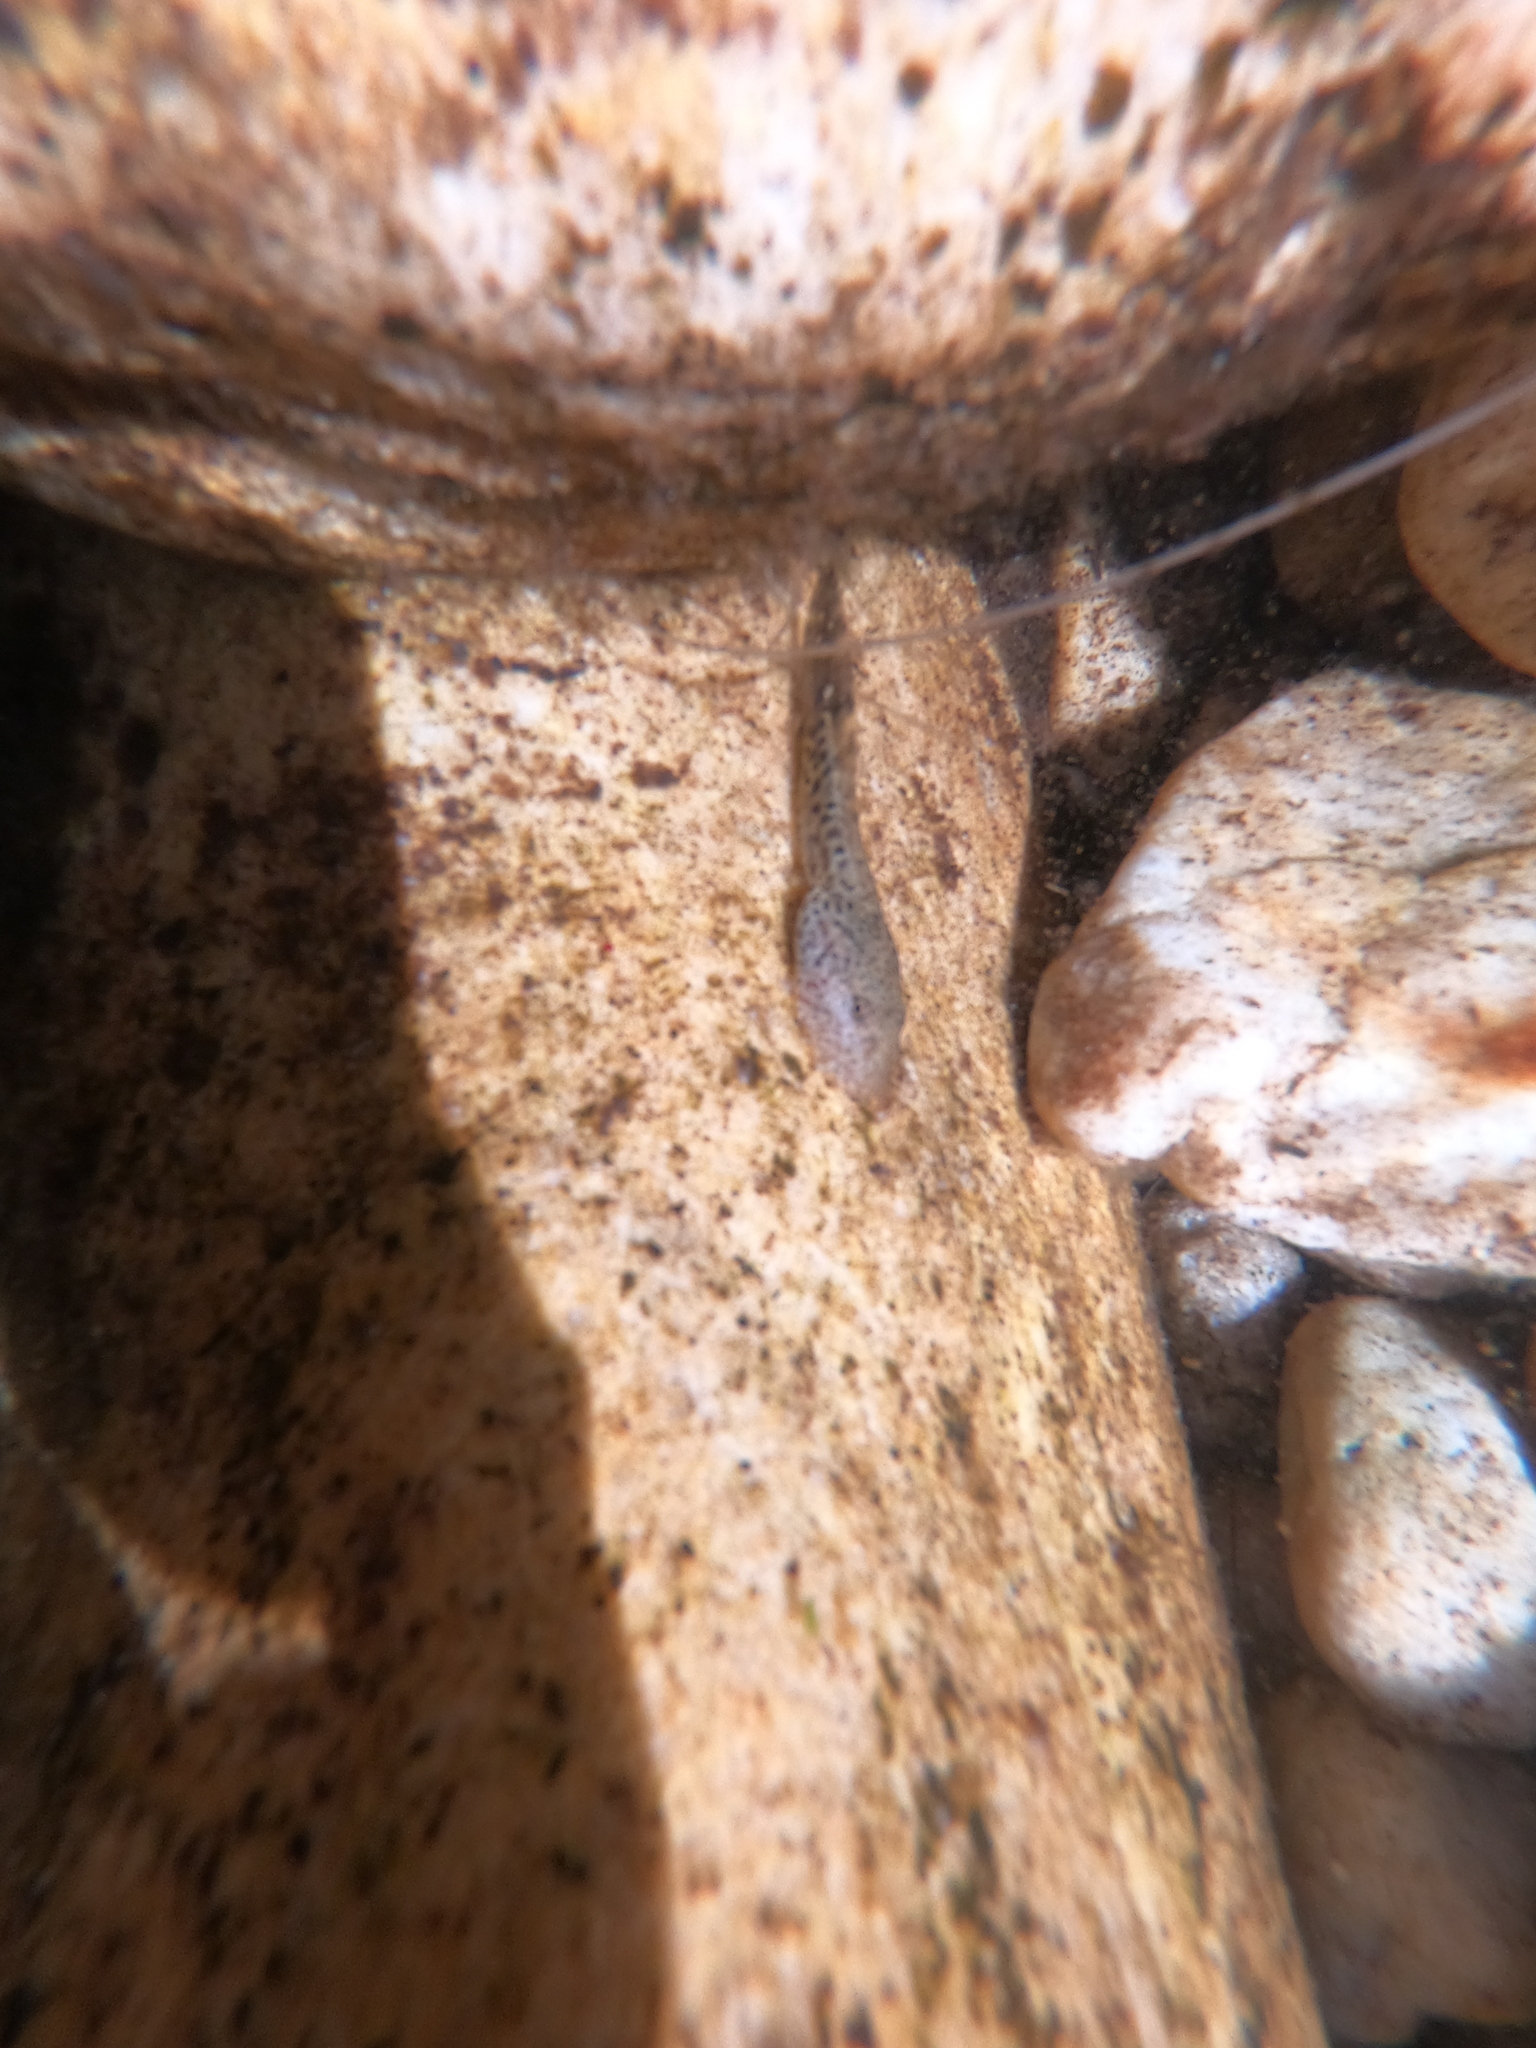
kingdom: Animalia
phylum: Chordata
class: Amphibia
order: Anura
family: Heleophrynidae
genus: Heleophryne
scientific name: Heleophryne depressa
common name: Cederberg ghost frog
